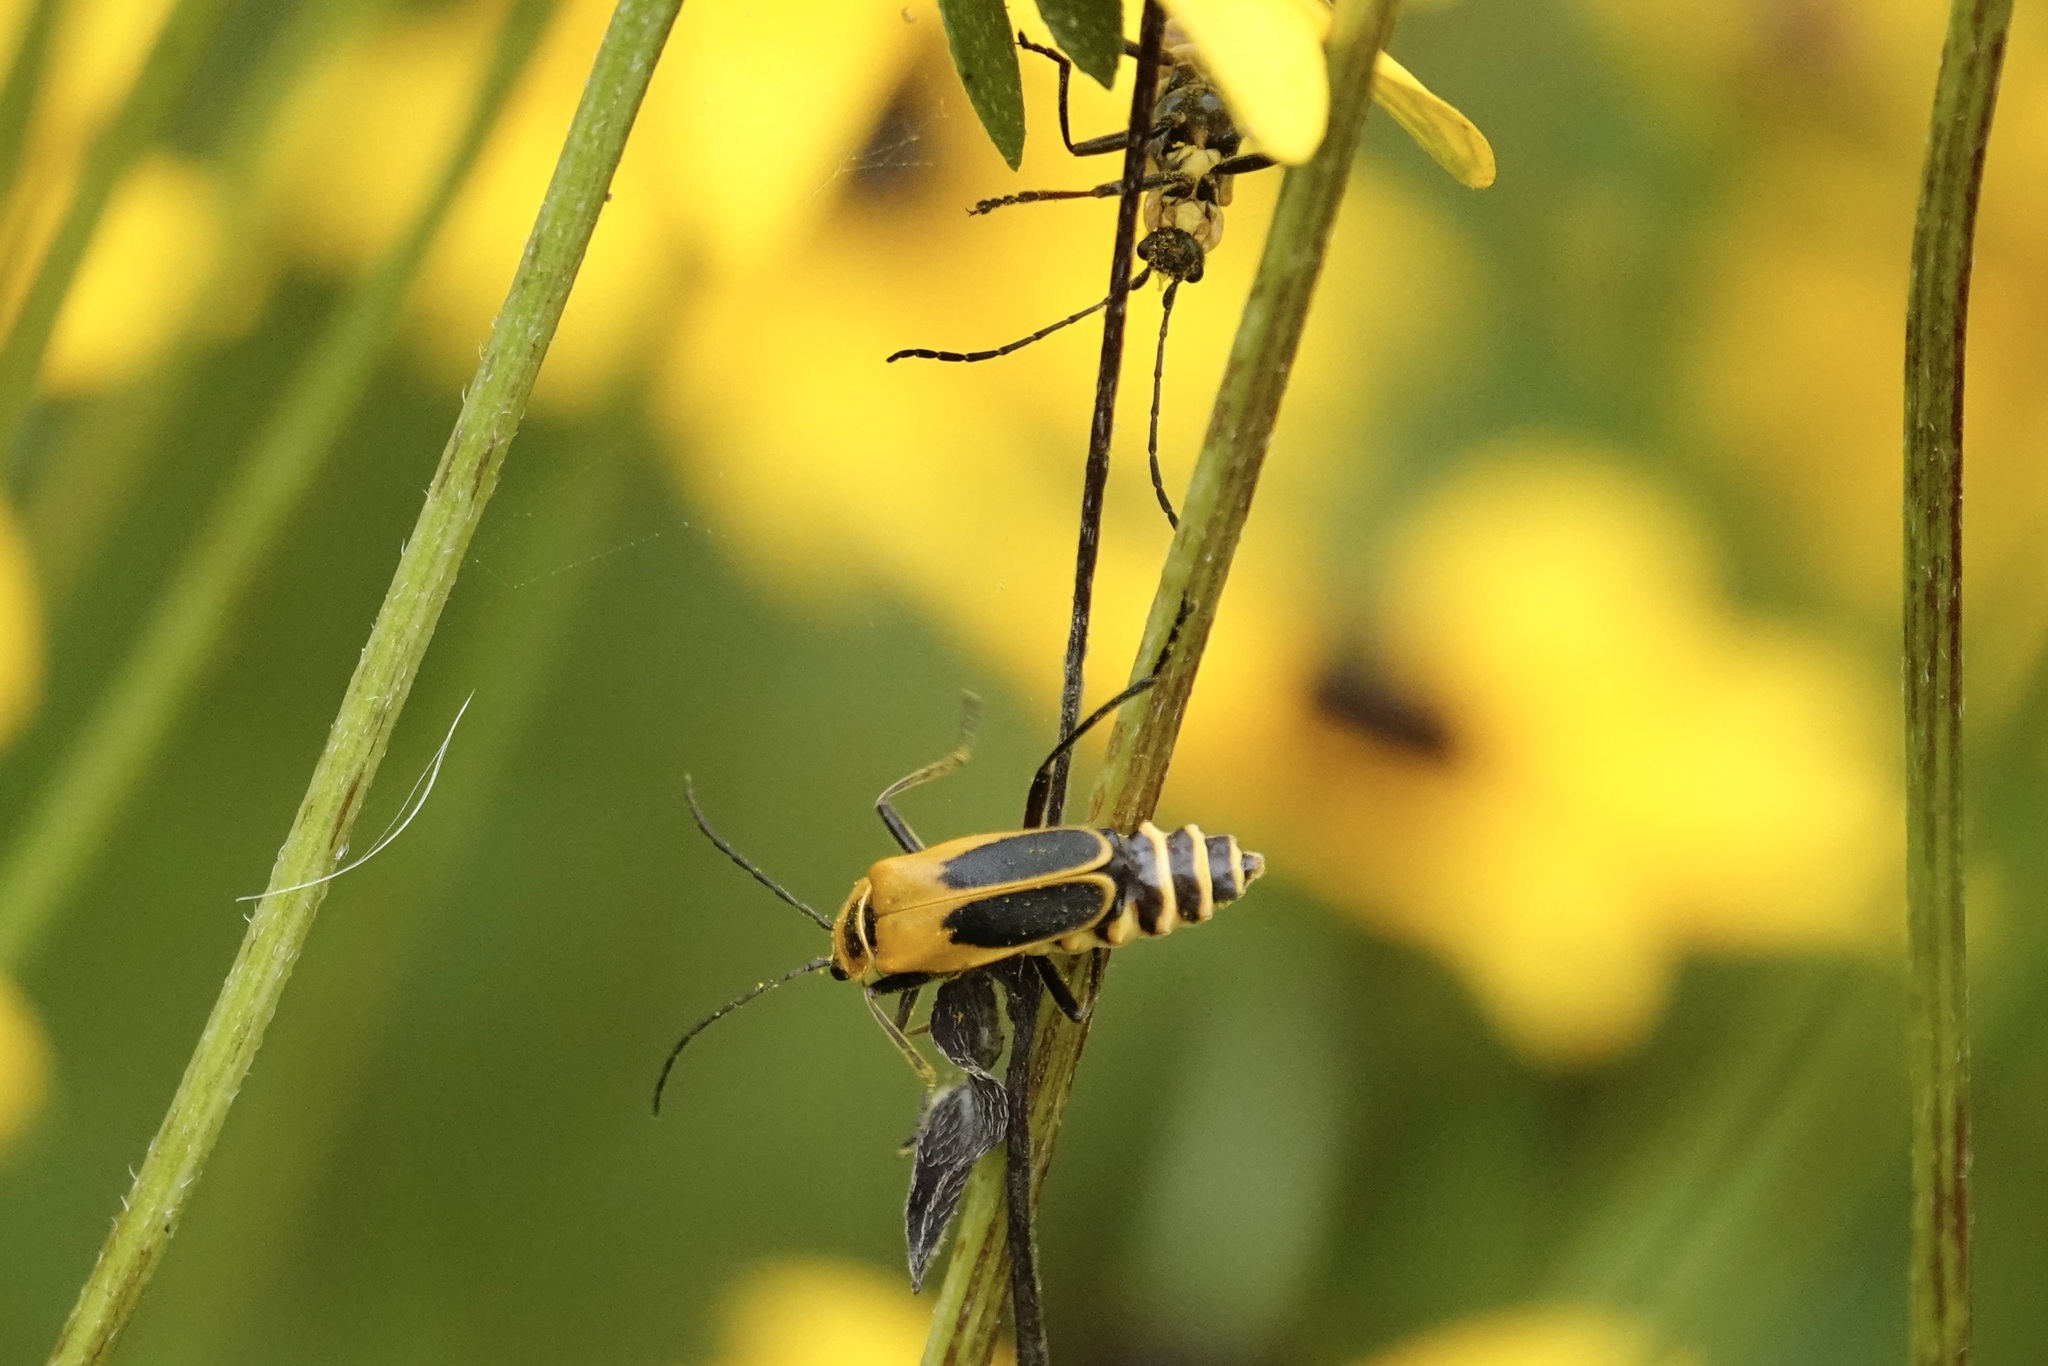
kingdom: Animalia
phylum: Arthropoda
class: Insecta
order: Coleoptera
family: Cantharidae
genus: Chauliognathus
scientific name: Chauliognathus pensylvanicus
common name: Goldenrod soldier beetle
